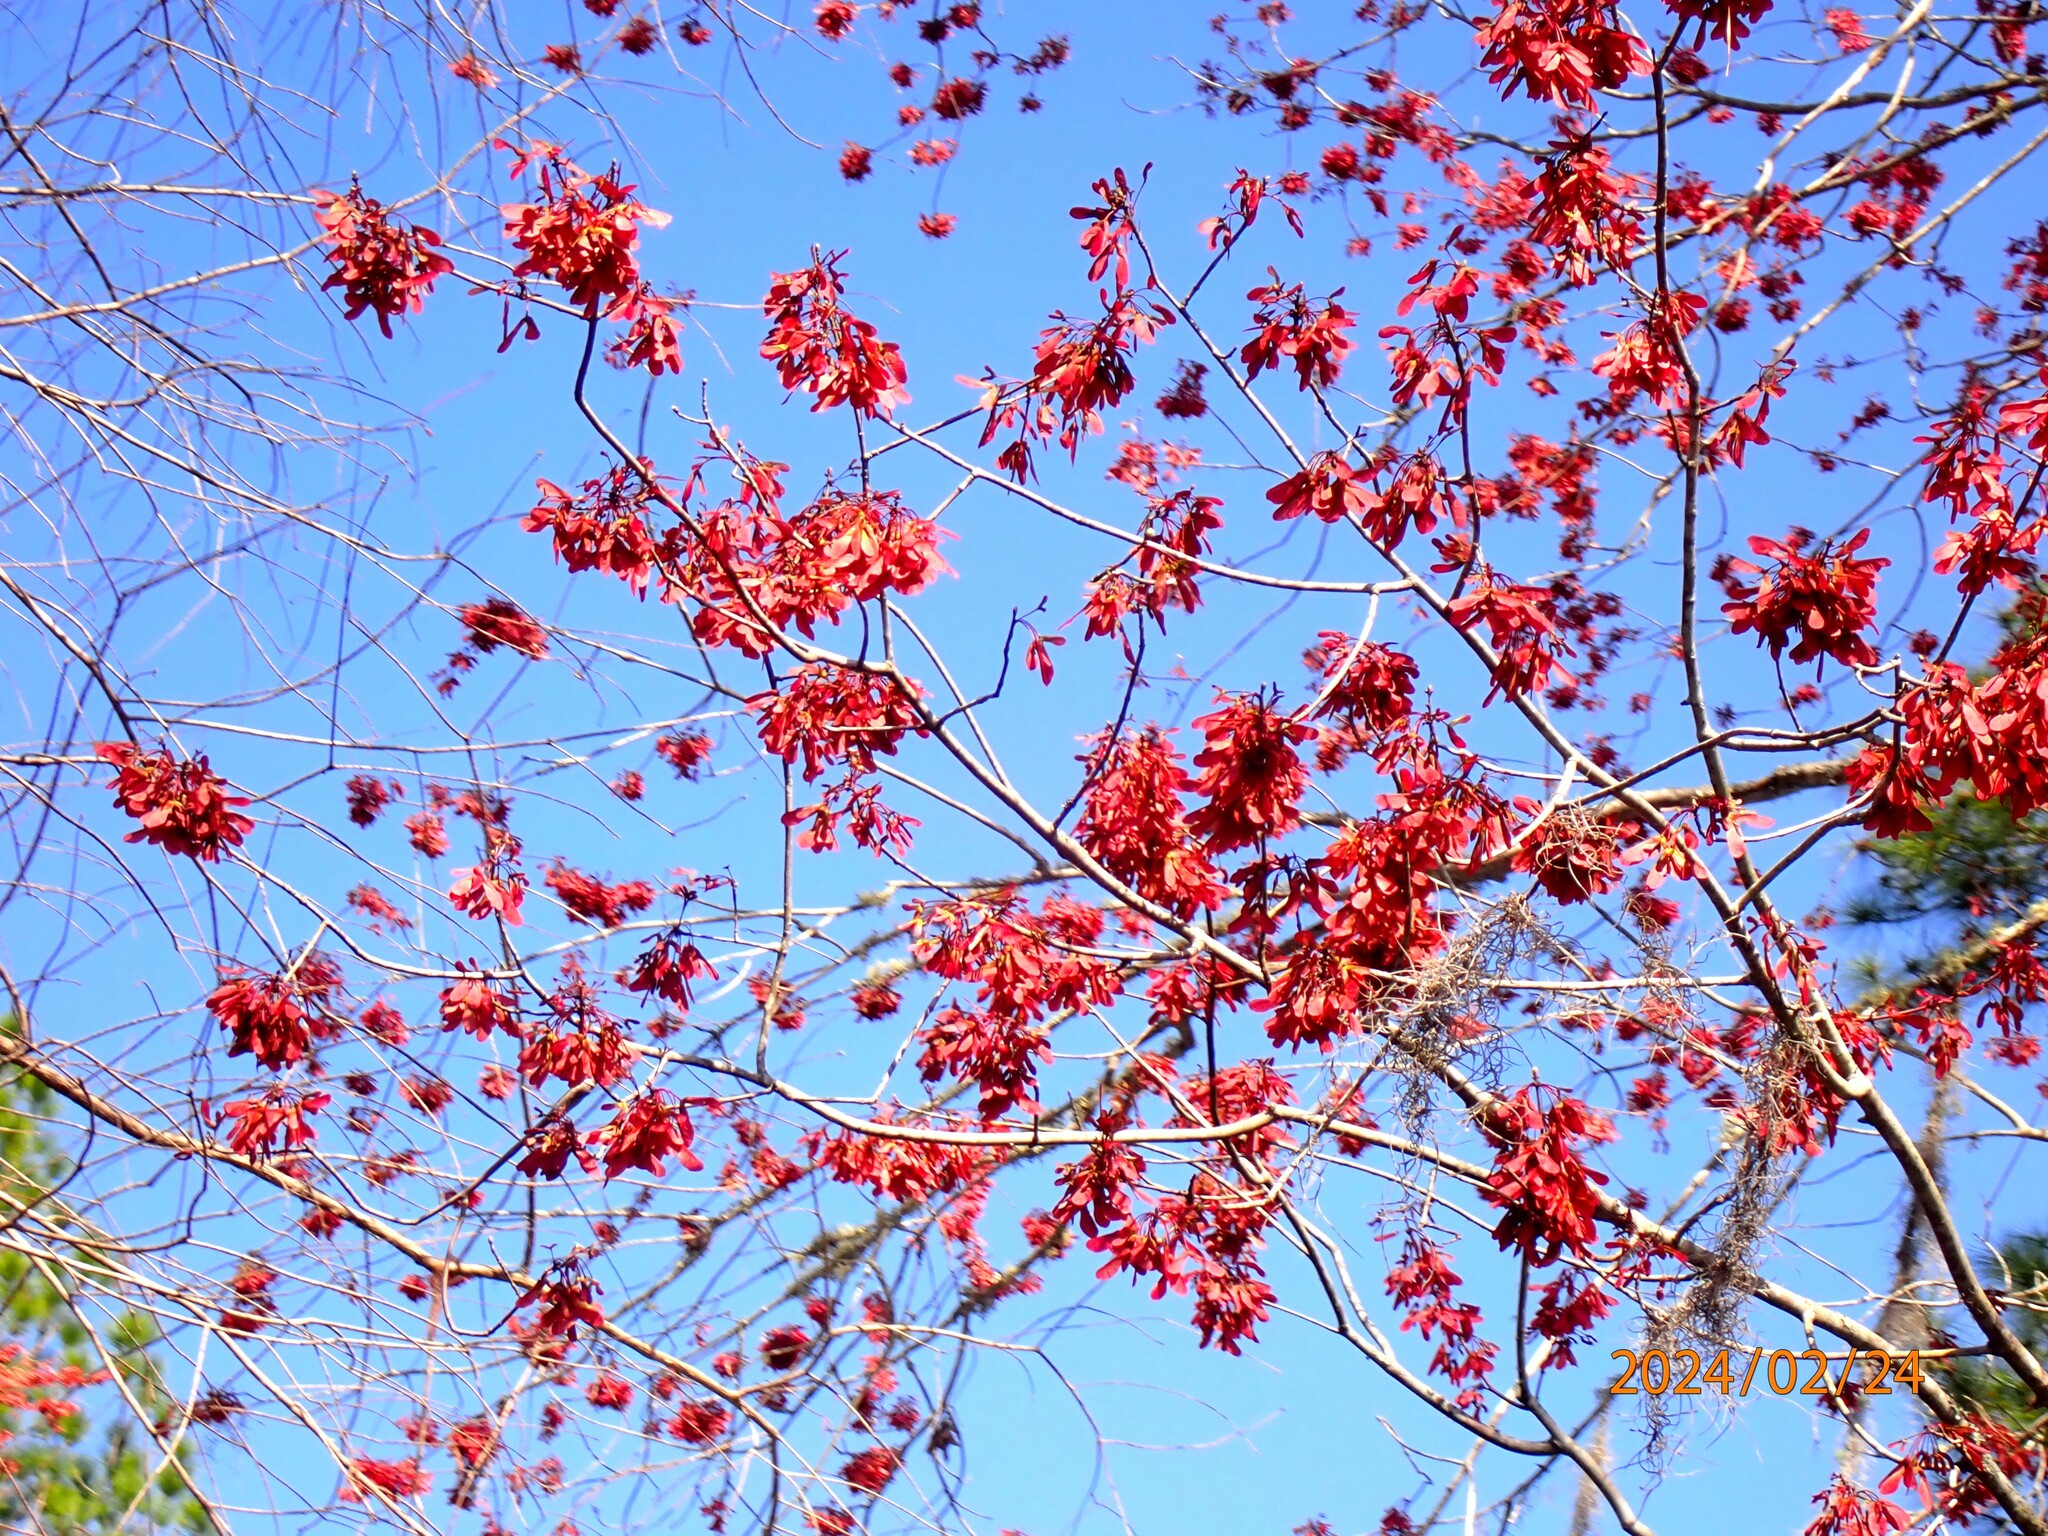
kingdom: Plantae
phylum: Tracheophyta
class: Magnoliopsida
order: Sapindales
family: Sapindaceae
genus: Acer
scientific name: Acer rubrum
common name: Red maple
